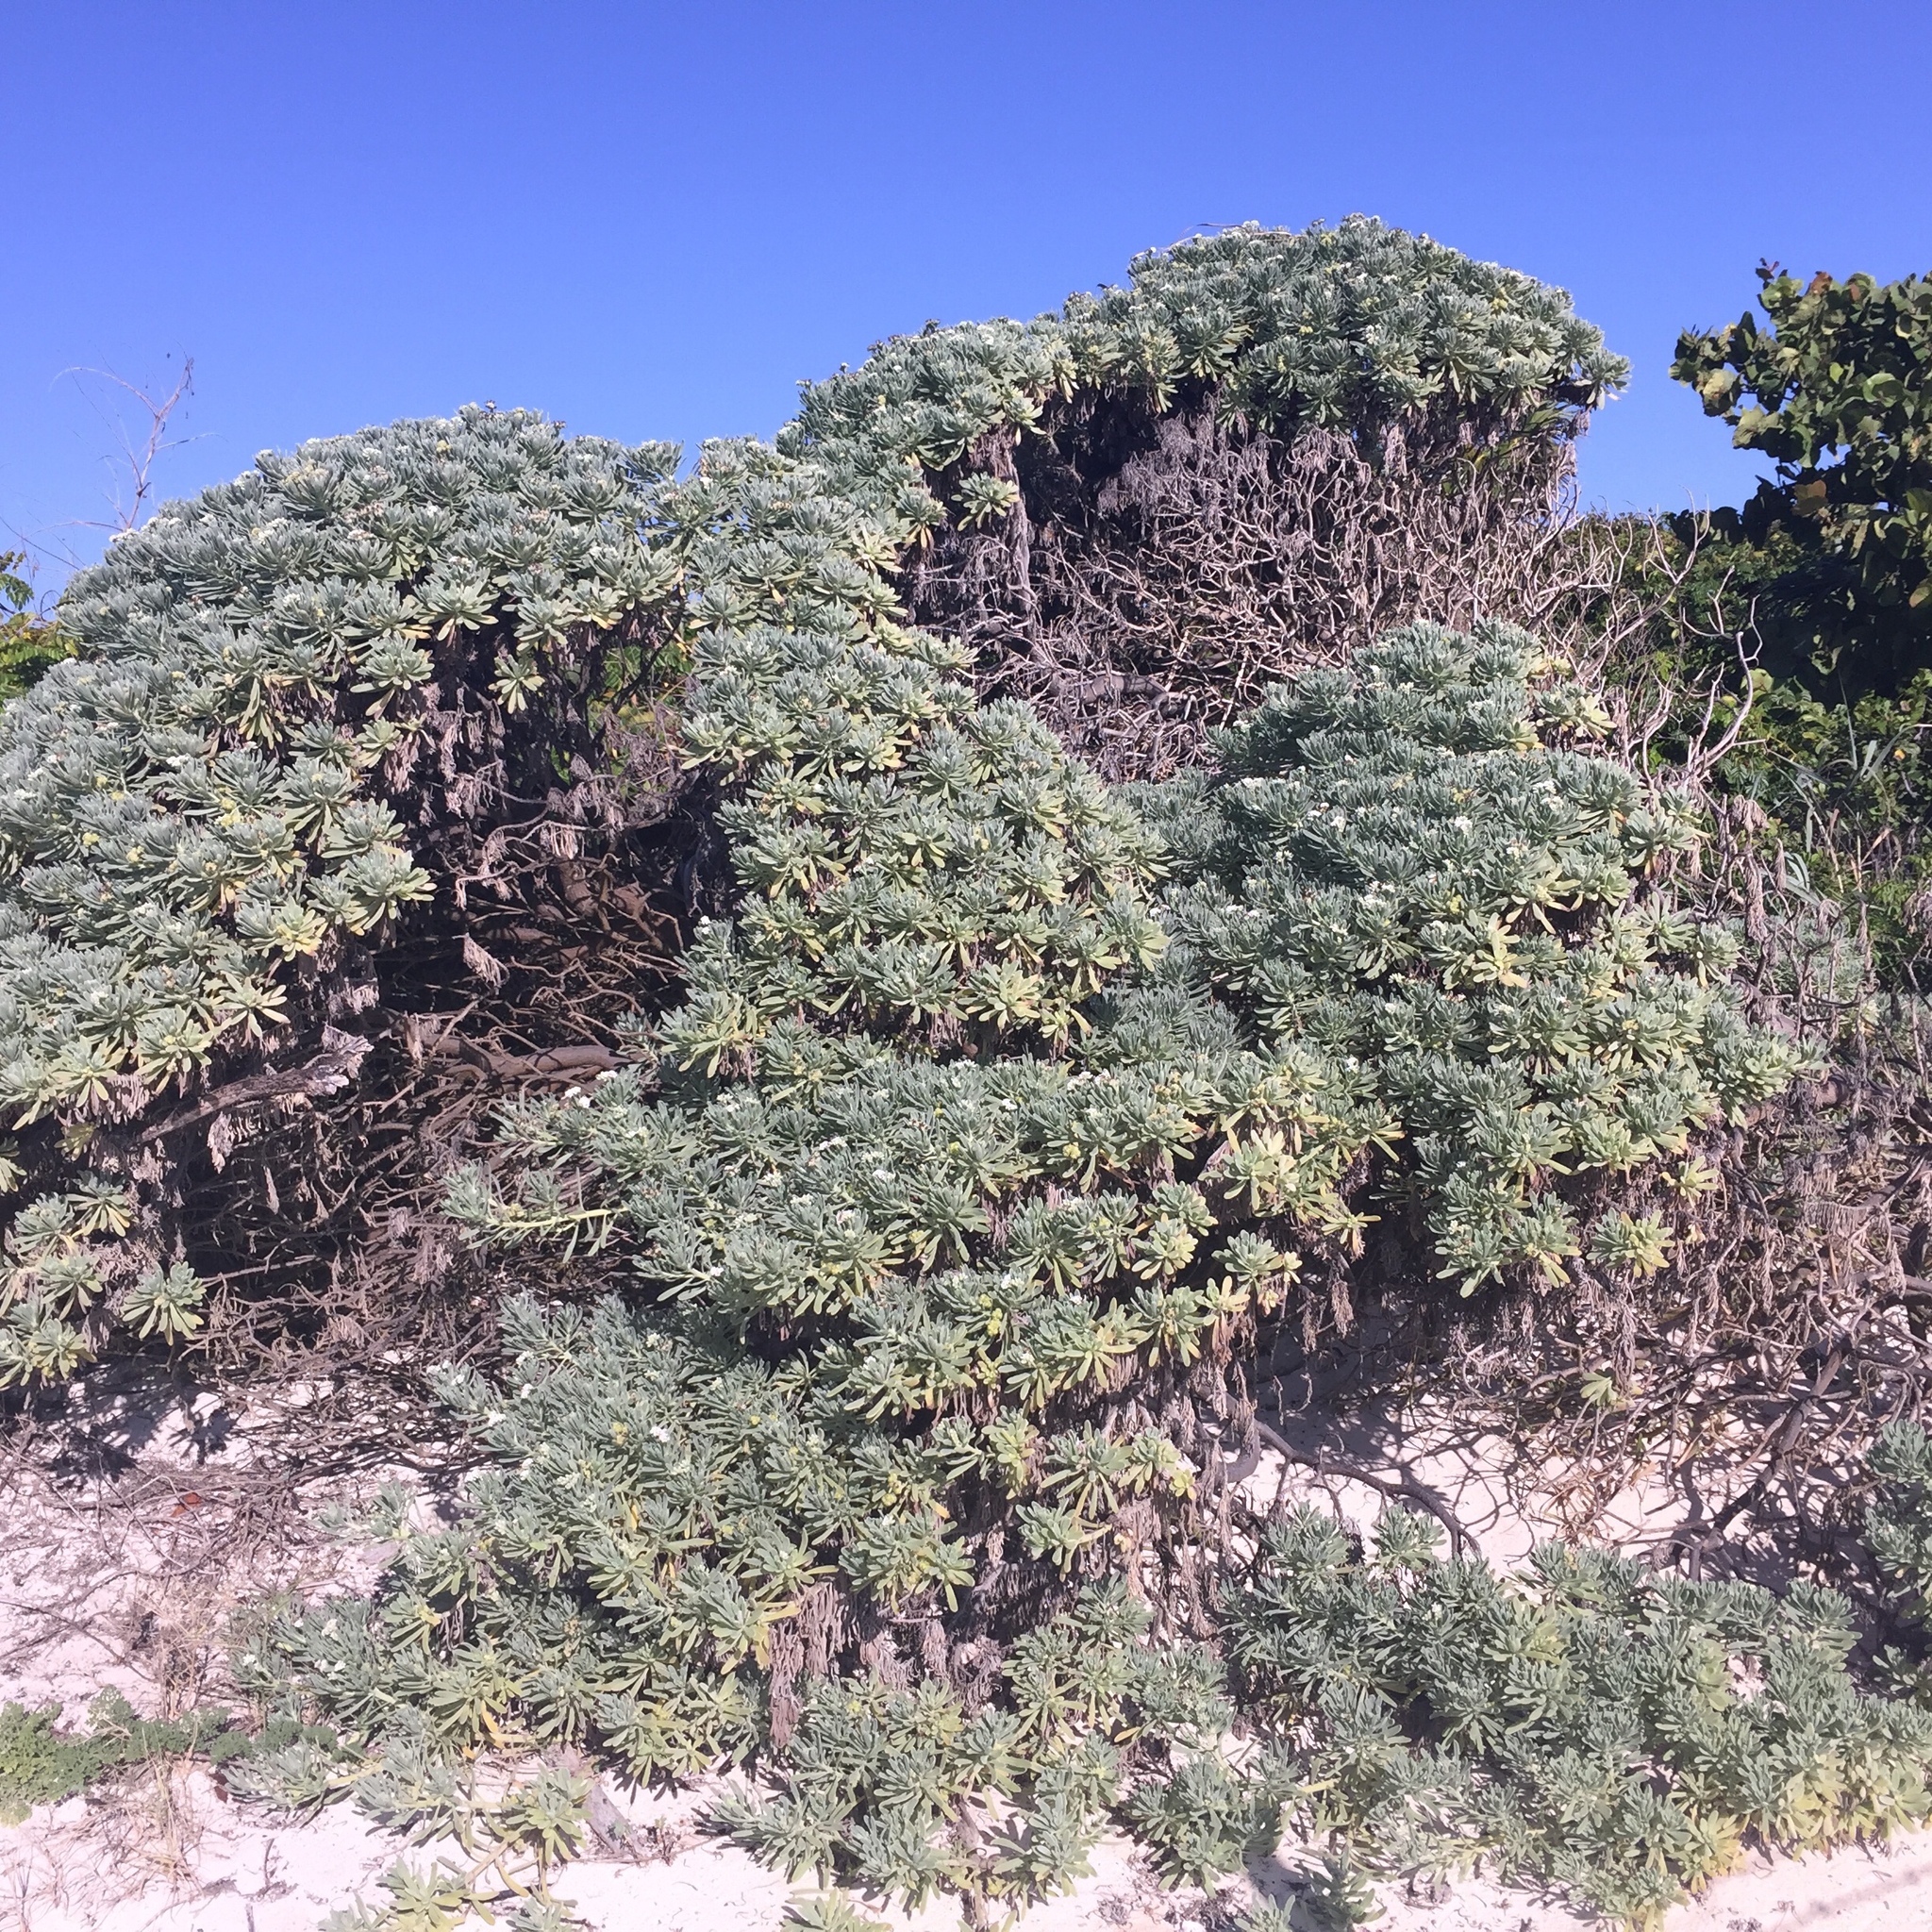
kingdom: Plantae
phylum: Tracheophyta
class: Magnoliopsida
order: Boraginales
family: Heliotropiaceae
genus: Tournefortia
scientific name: Tournefortia gnaphalodes
